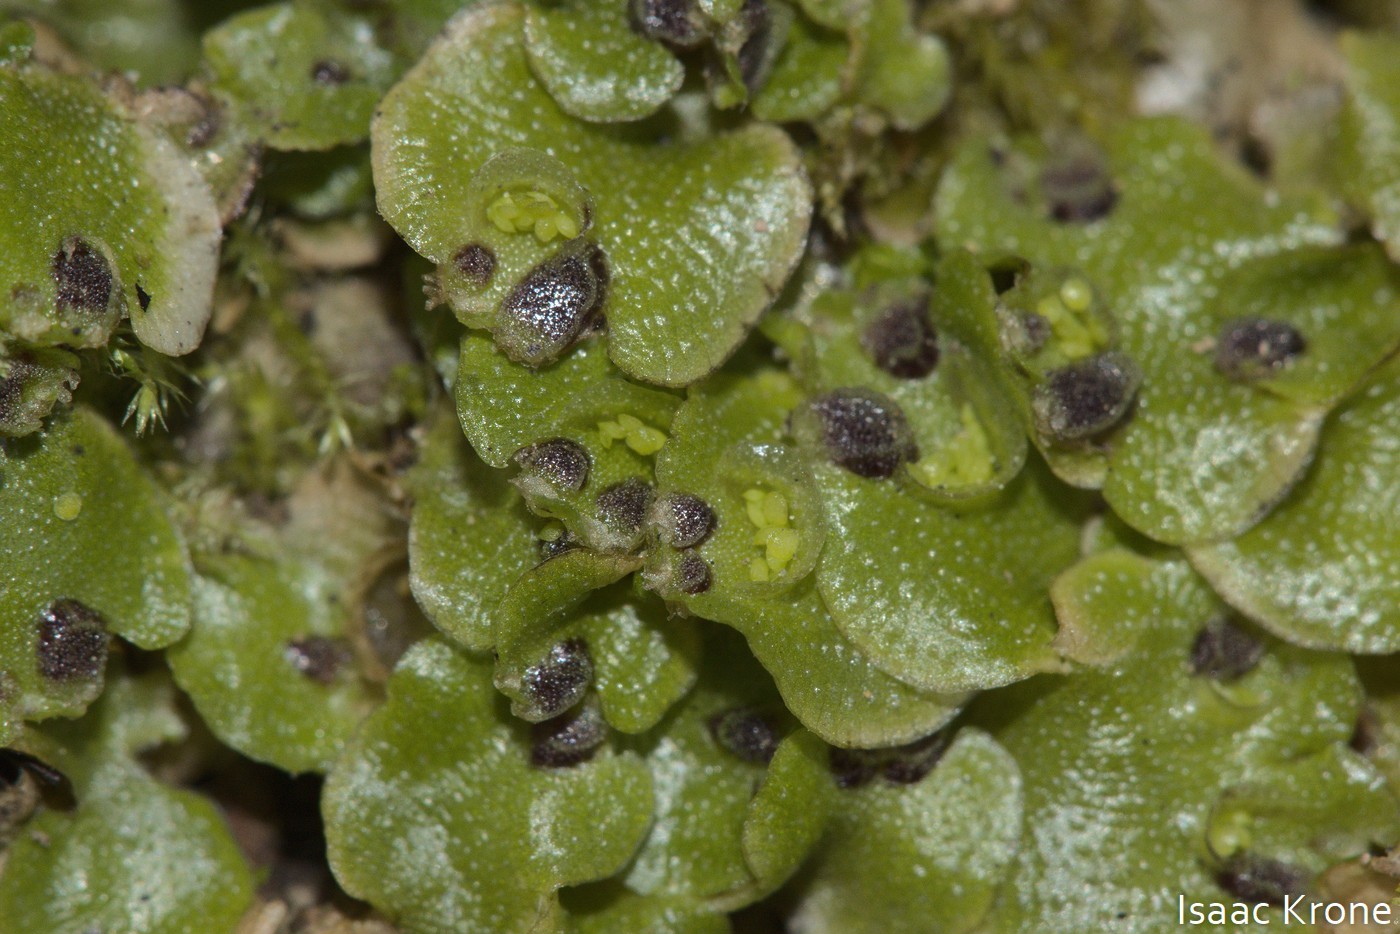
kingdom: Plantae
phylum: Marchantiophyta
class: Marchantiopsida
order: Lunulariales
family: Lunulariaceae
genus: Lunularia
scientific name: Lunularia cruciata
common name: Crescent-cup liverwort
